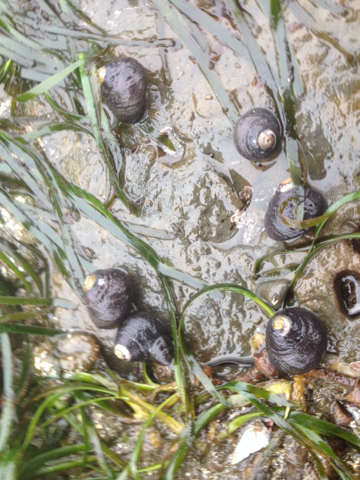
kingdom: Animalia
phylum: Mollusca
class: Gastropoda
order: Trochida
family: Tegulidae
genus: Tegula
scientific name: Tegula funebralis
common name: Black tegula
